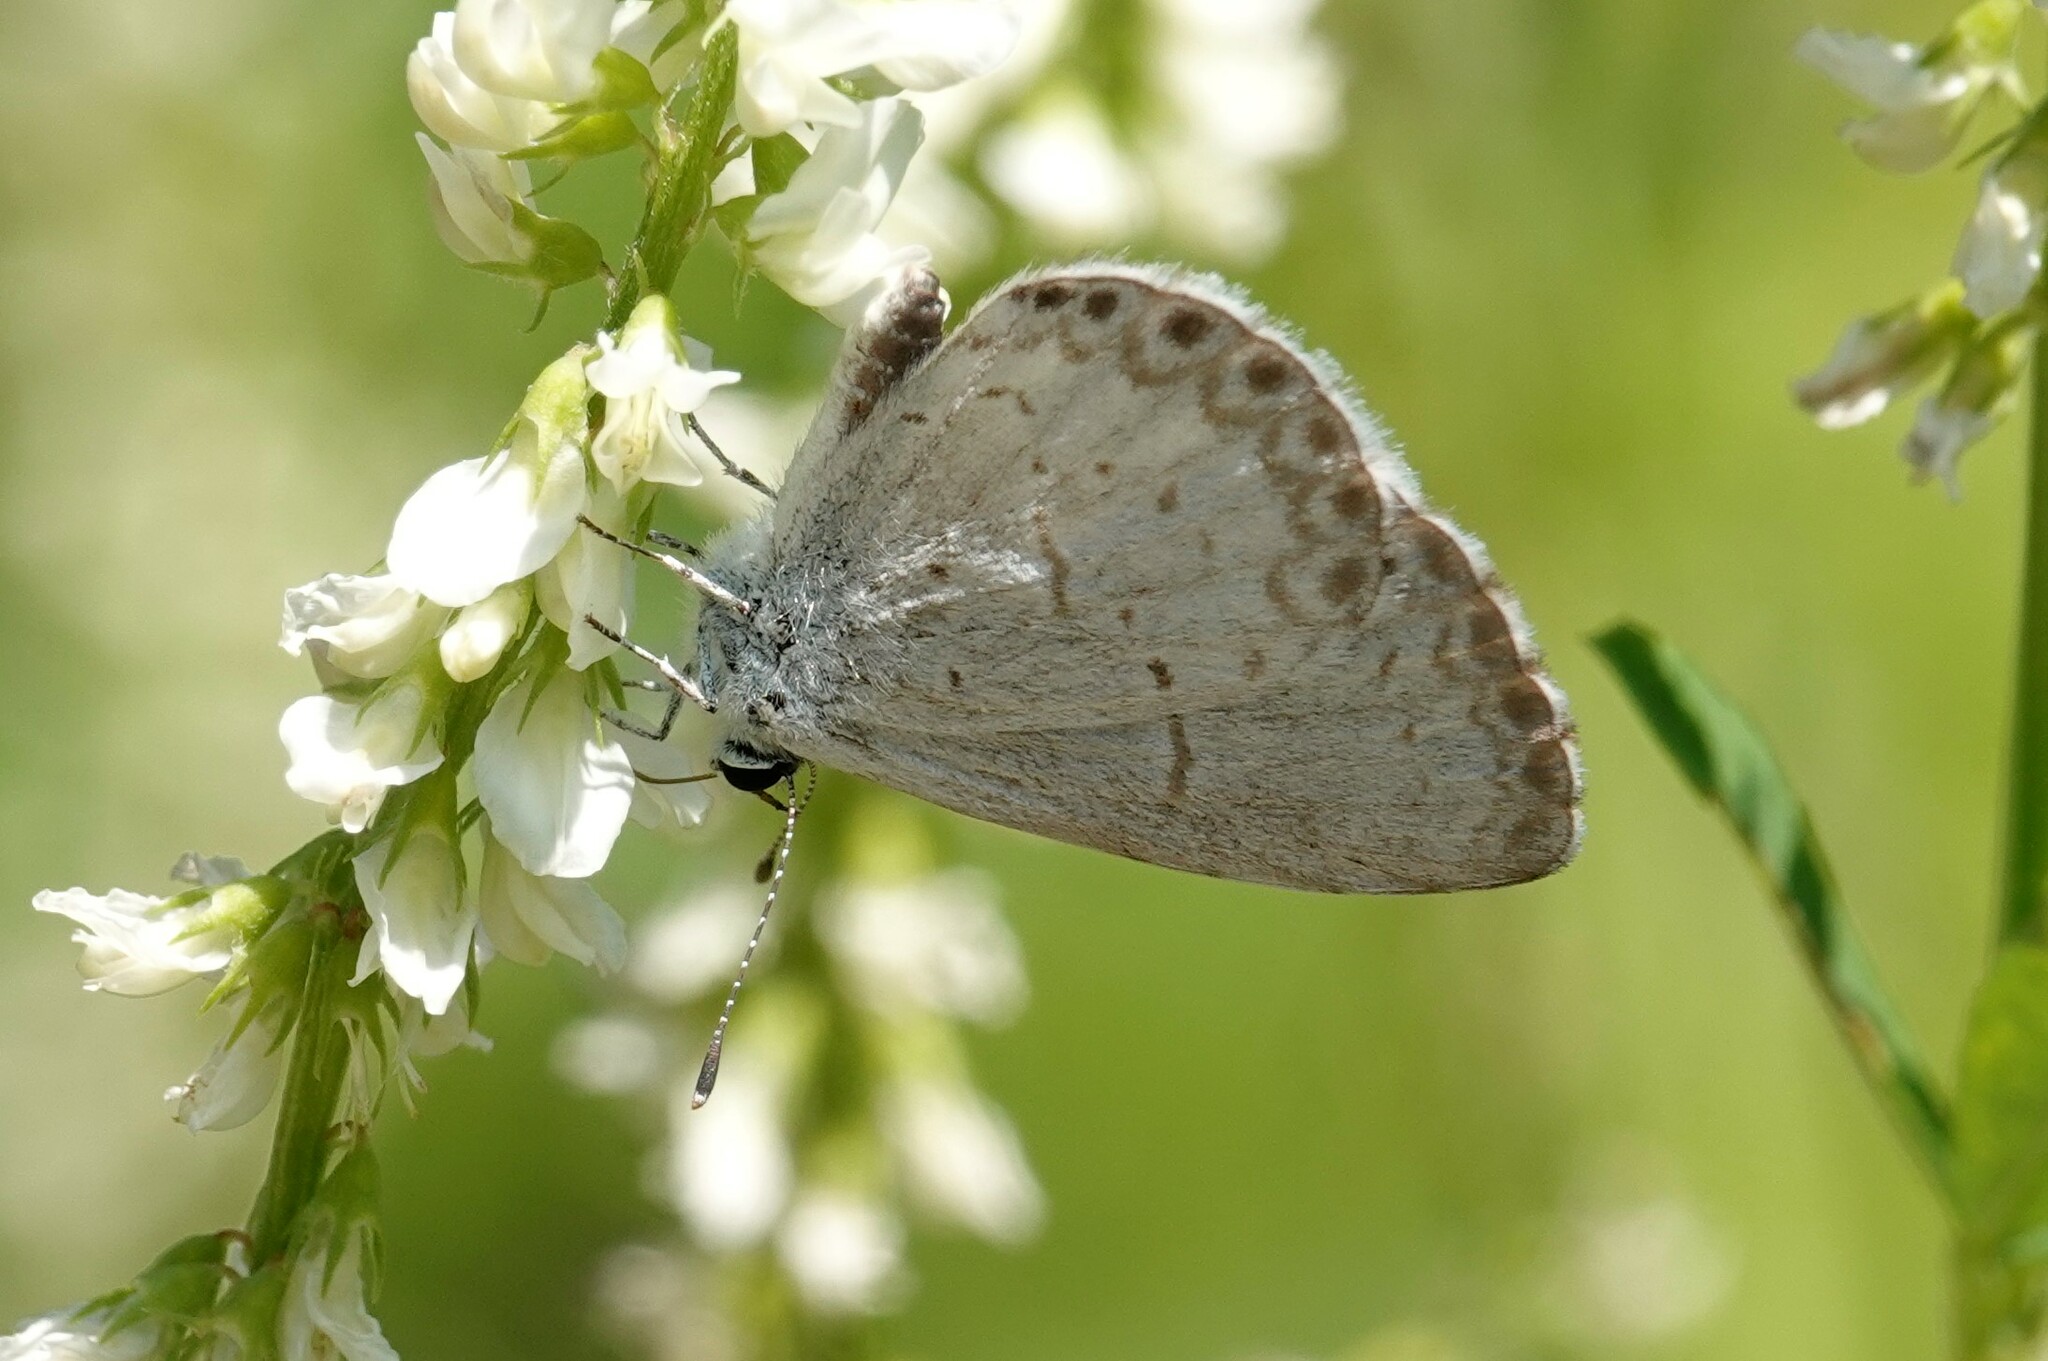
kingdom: Animalia
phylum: Arthropoda
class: Insecta
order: Lepidoptera
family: Lycaenidae
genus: Celastrina
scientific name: Celastrina lucia
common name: Lucia azure
